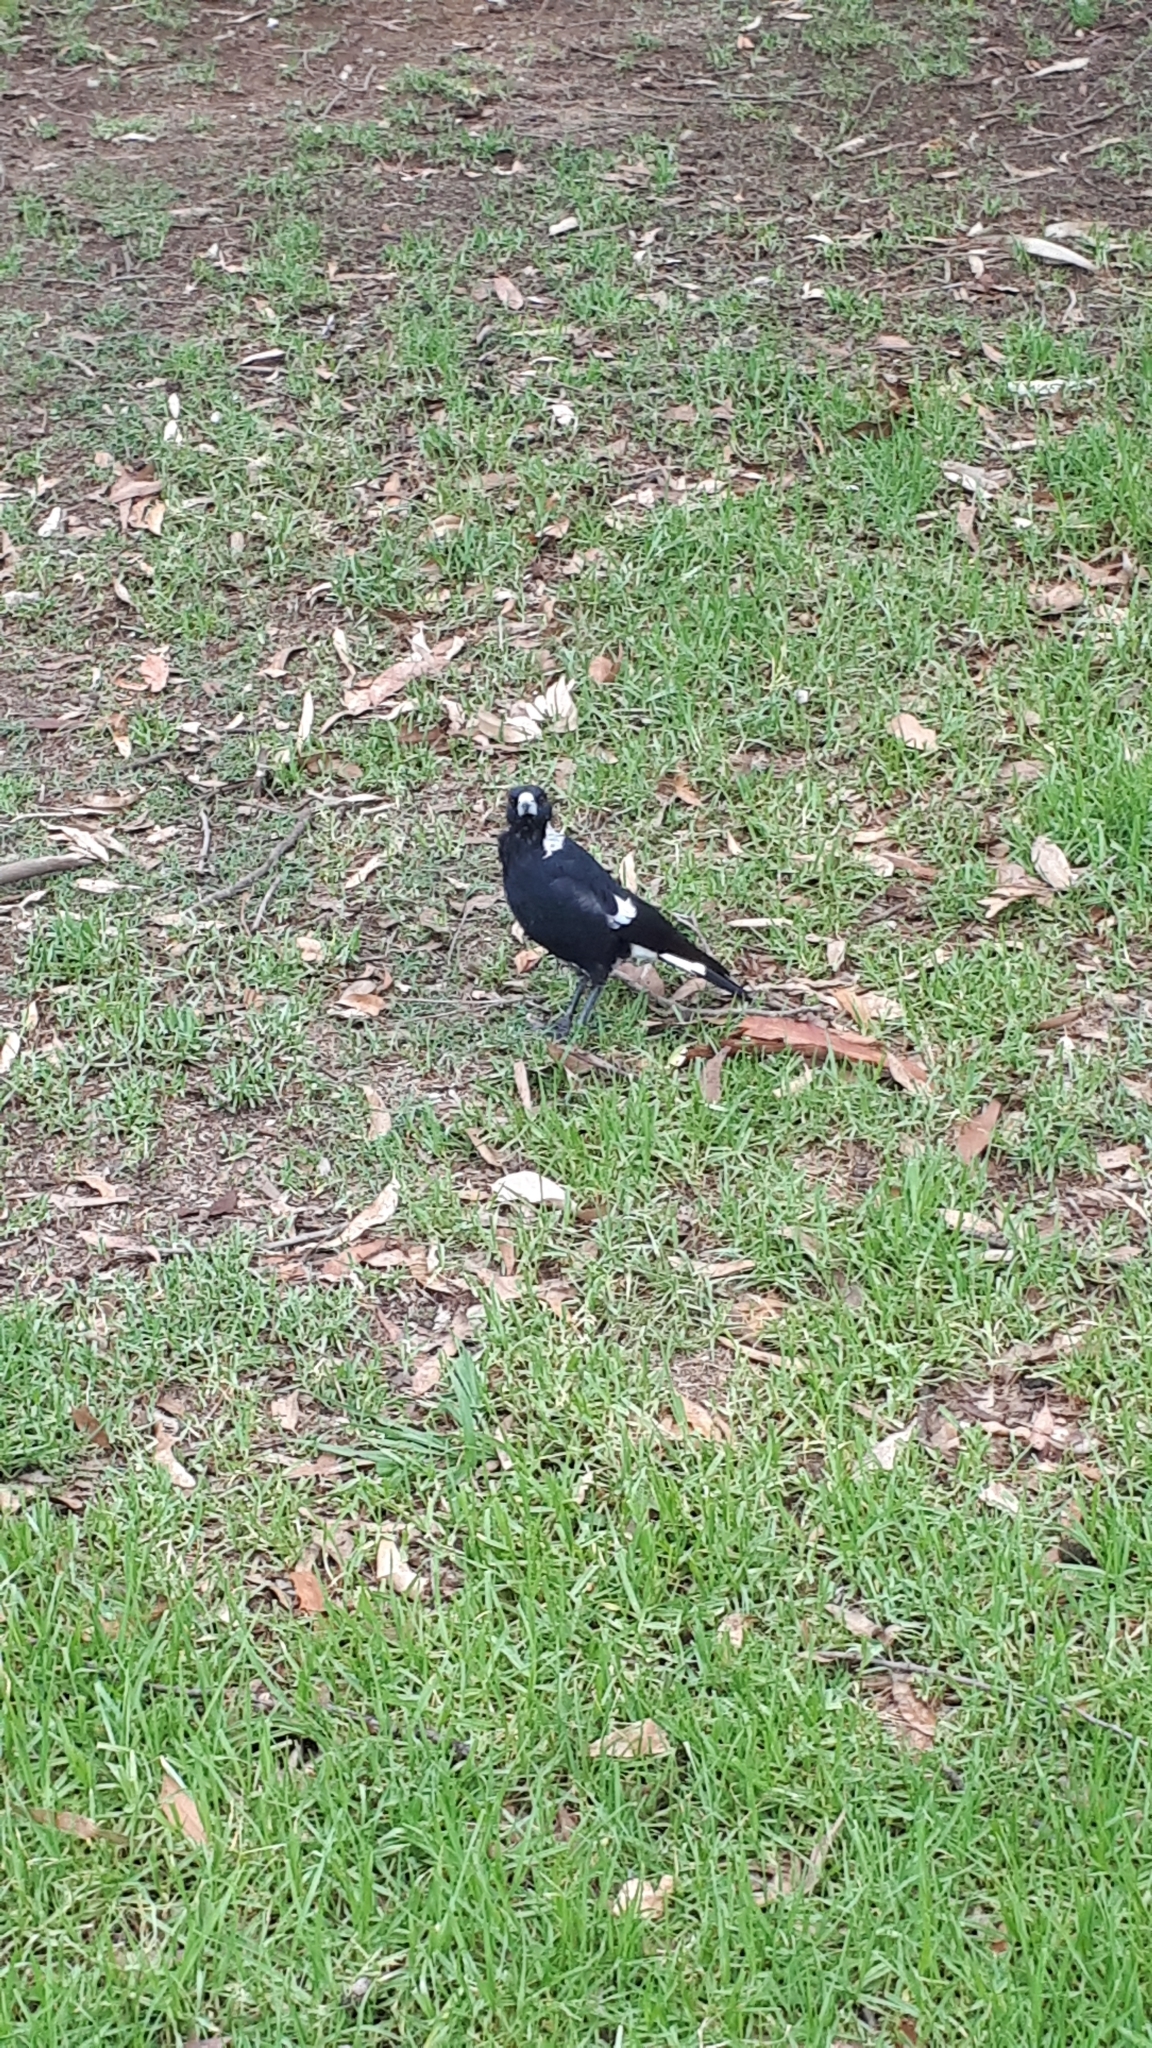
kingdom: Animalia
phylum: Chordata
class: Aves
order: Passeriformes
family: Cracticidae
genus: Gymnorhina
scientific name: Gymnorhina tibicen
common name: Australian magpie
